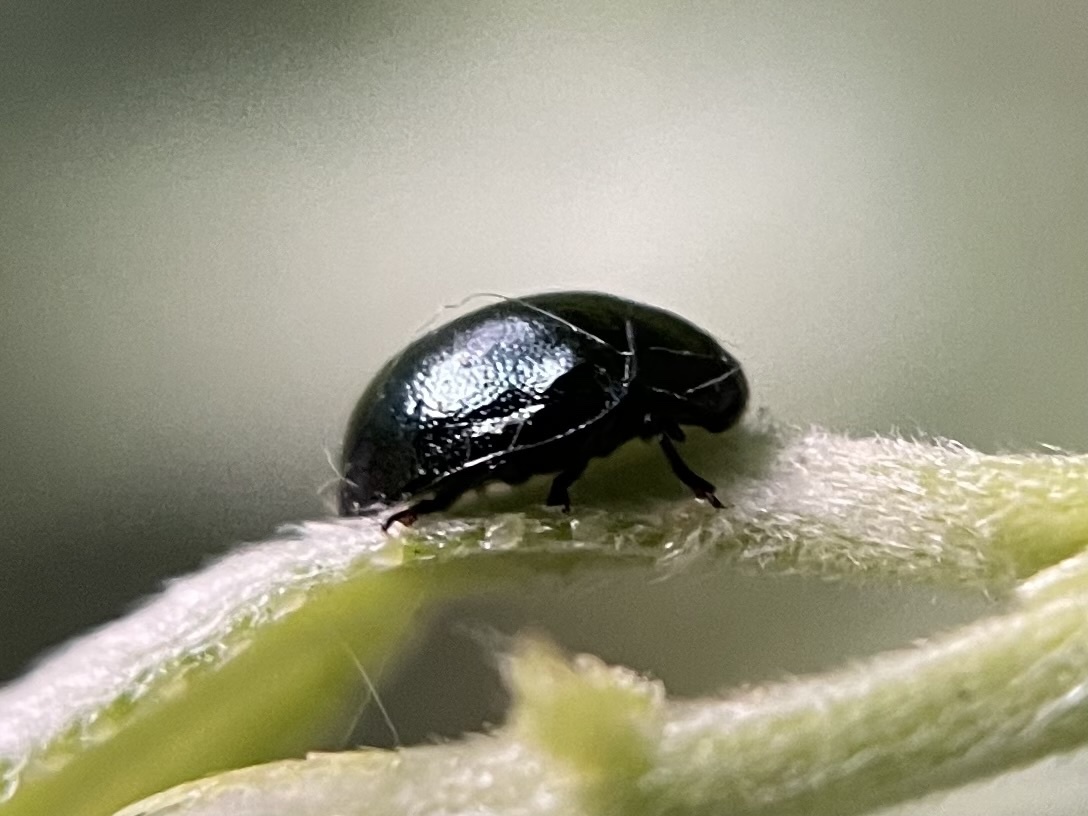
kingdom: Animalia
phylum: Arthropoda
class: Insecta
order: Coleoptera
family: Chrysomelidae
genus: Plagiodera
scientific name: Plagiodera versicolora
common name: Imported willow leaf beetle
